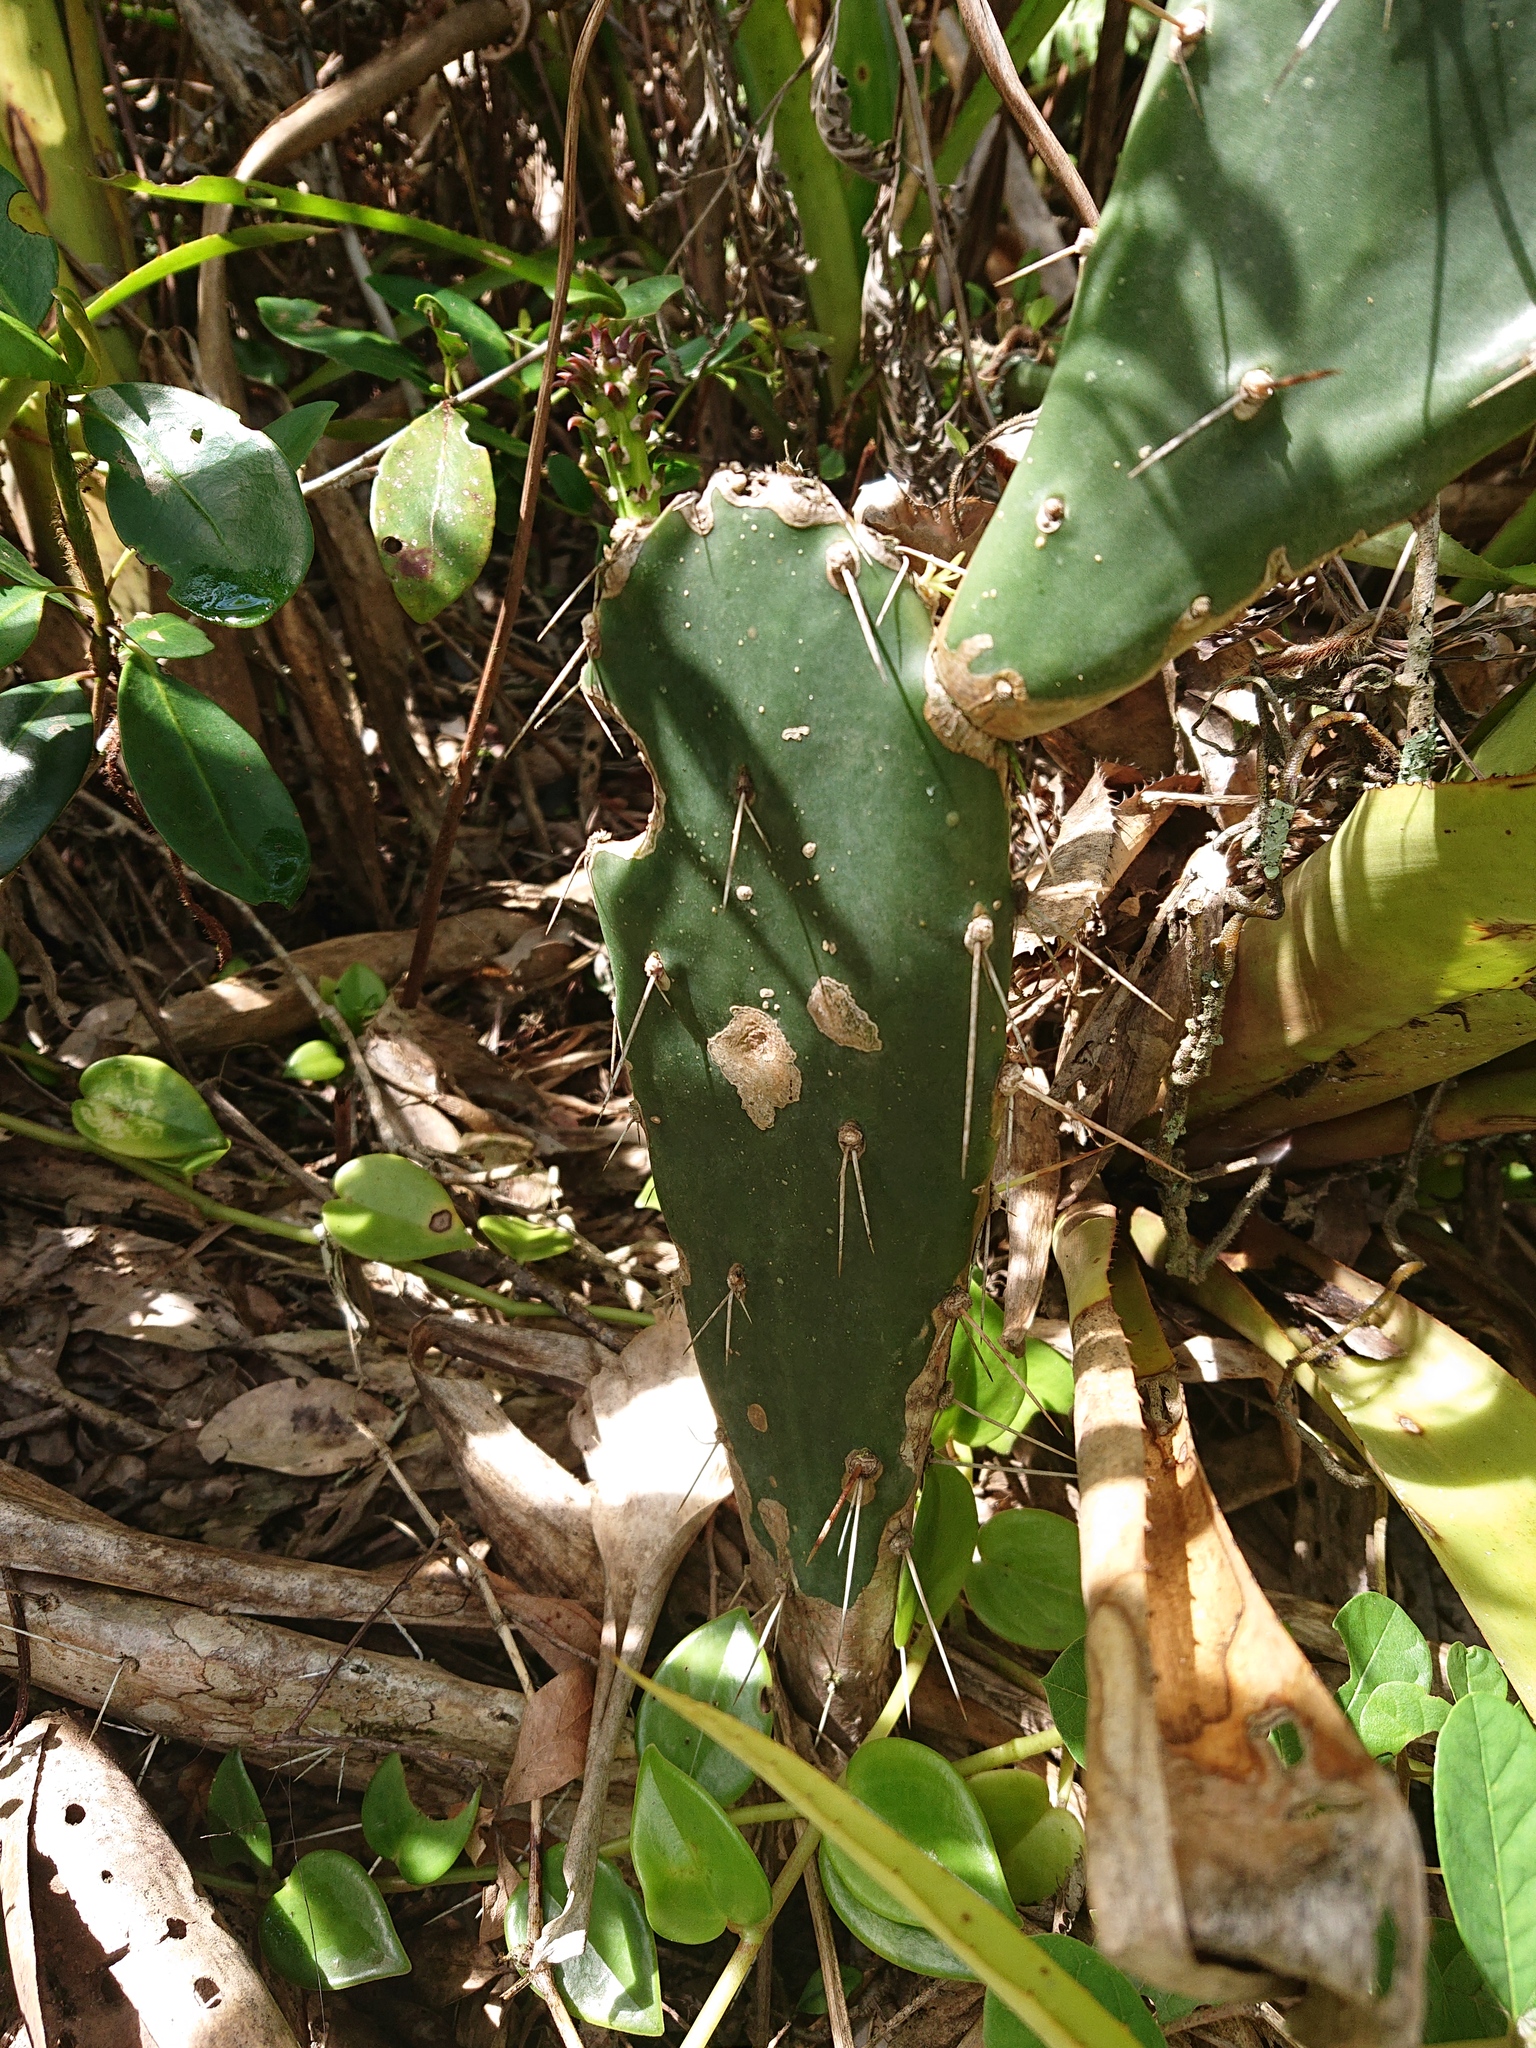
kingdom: Plantae
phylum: Tracheophyta
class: Magnoliopsida
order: Caryophyllales
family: Cactaceae
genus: Opuntia
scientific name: Opuntia monacantha
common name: Common pricklypear
